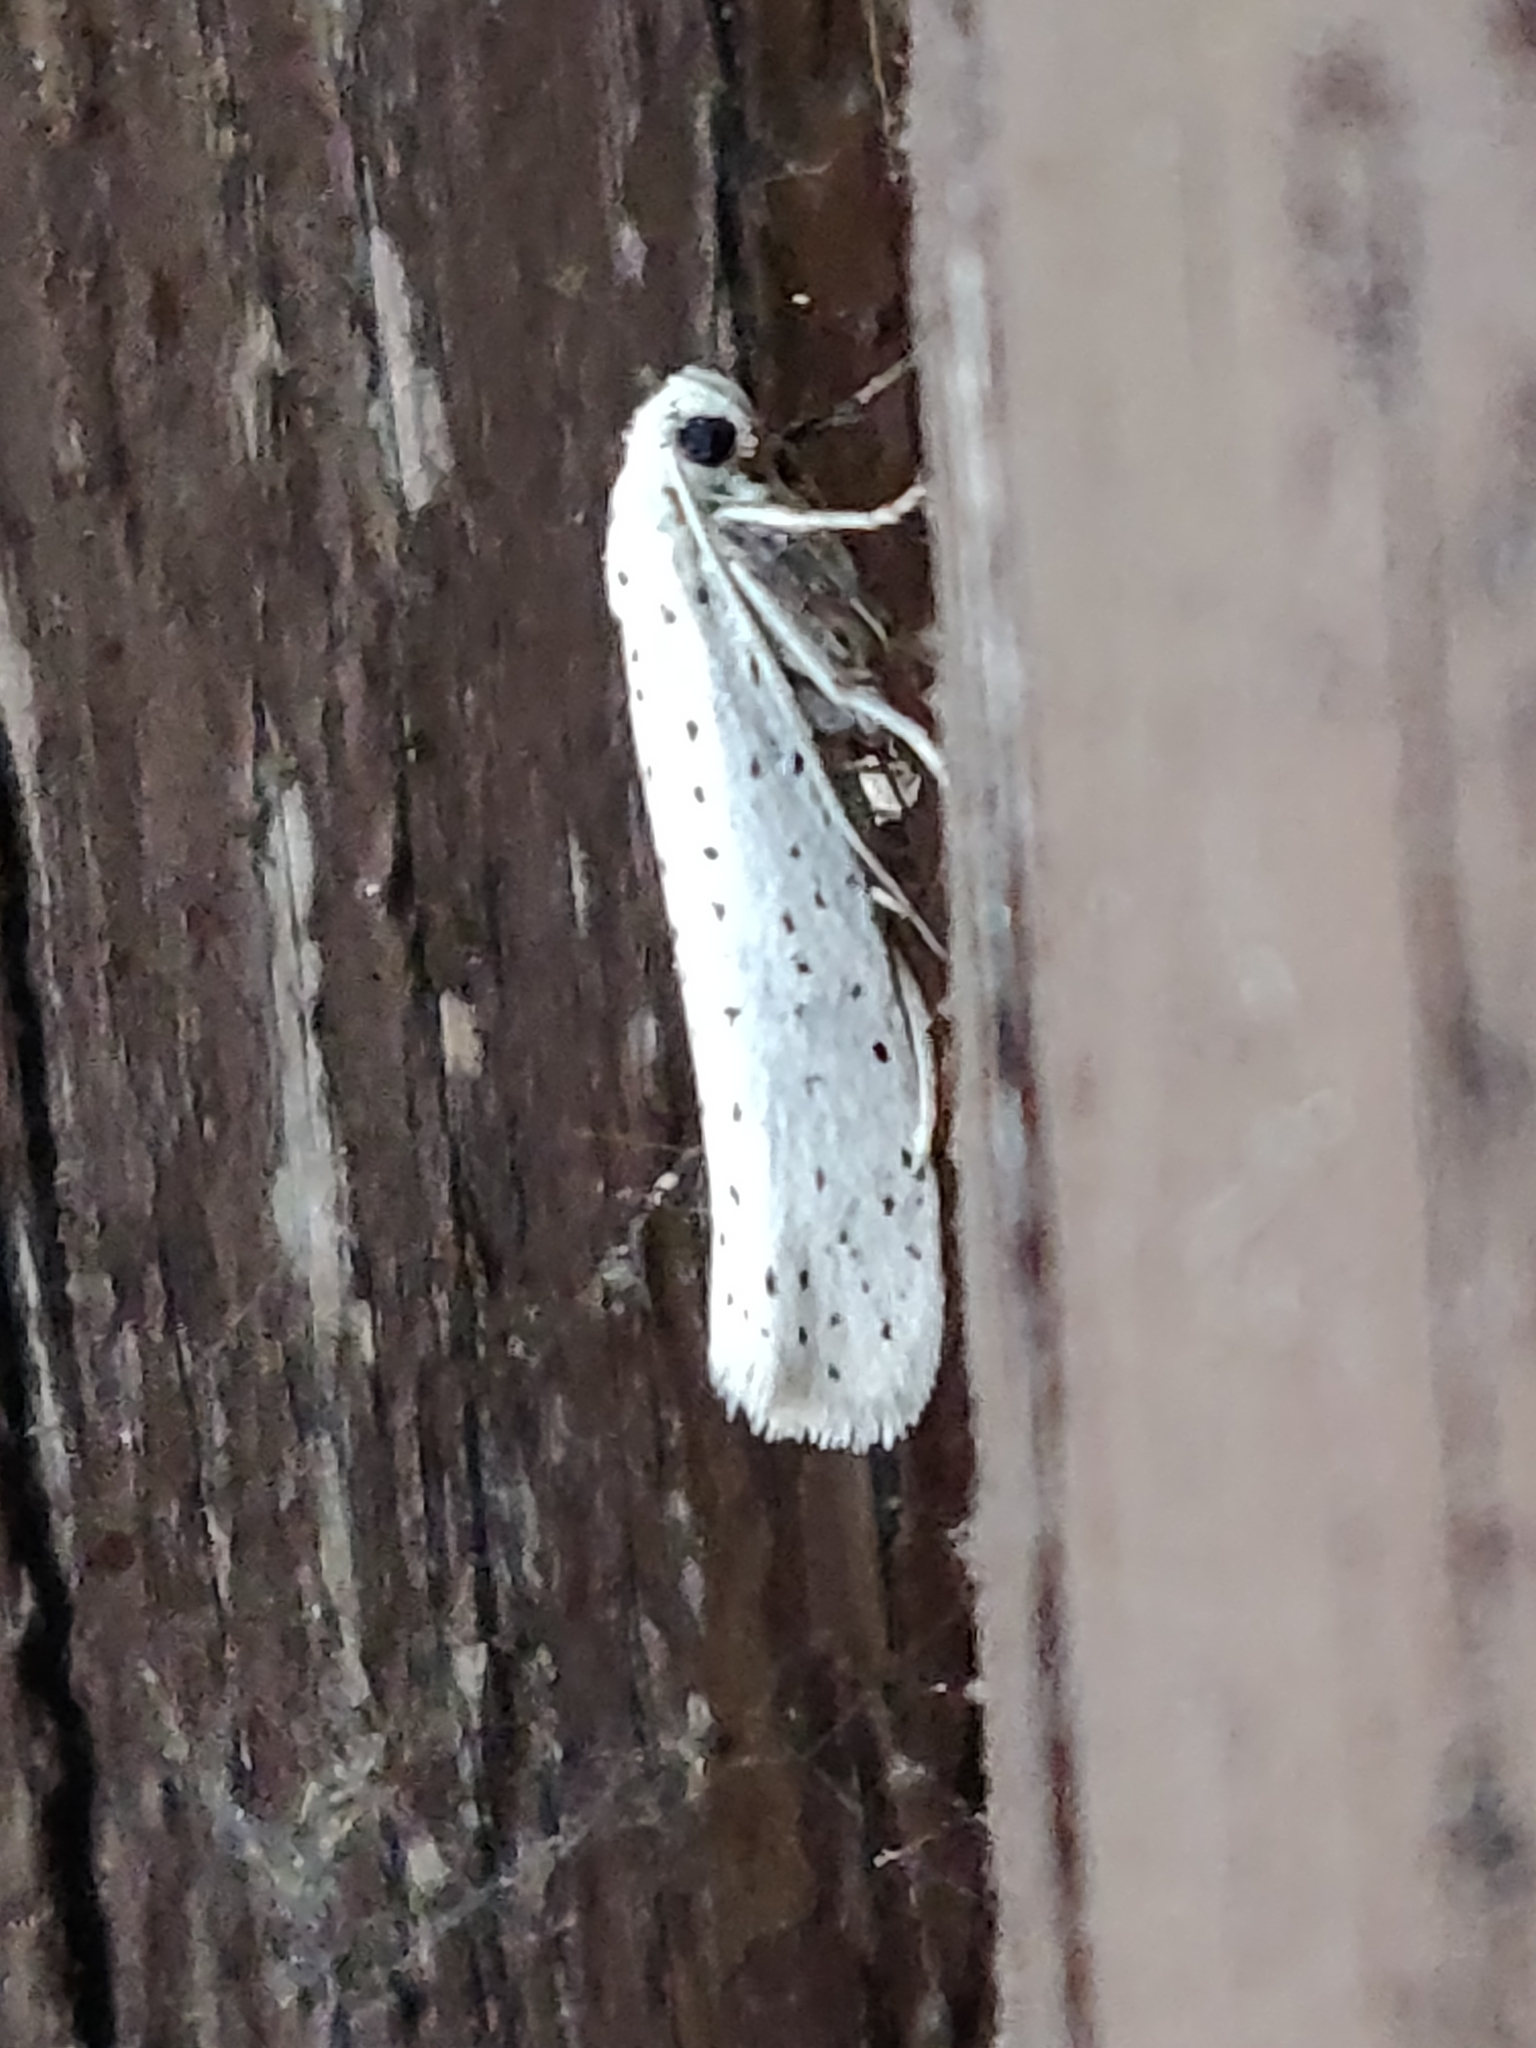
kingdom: Animalia
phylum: Arthropoda
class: Insecta
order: Lepidoptera
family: Yponomeutidae
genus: Yponomeuta
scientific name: Yponomeuta evonymella
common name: Bird-cherry ermine
